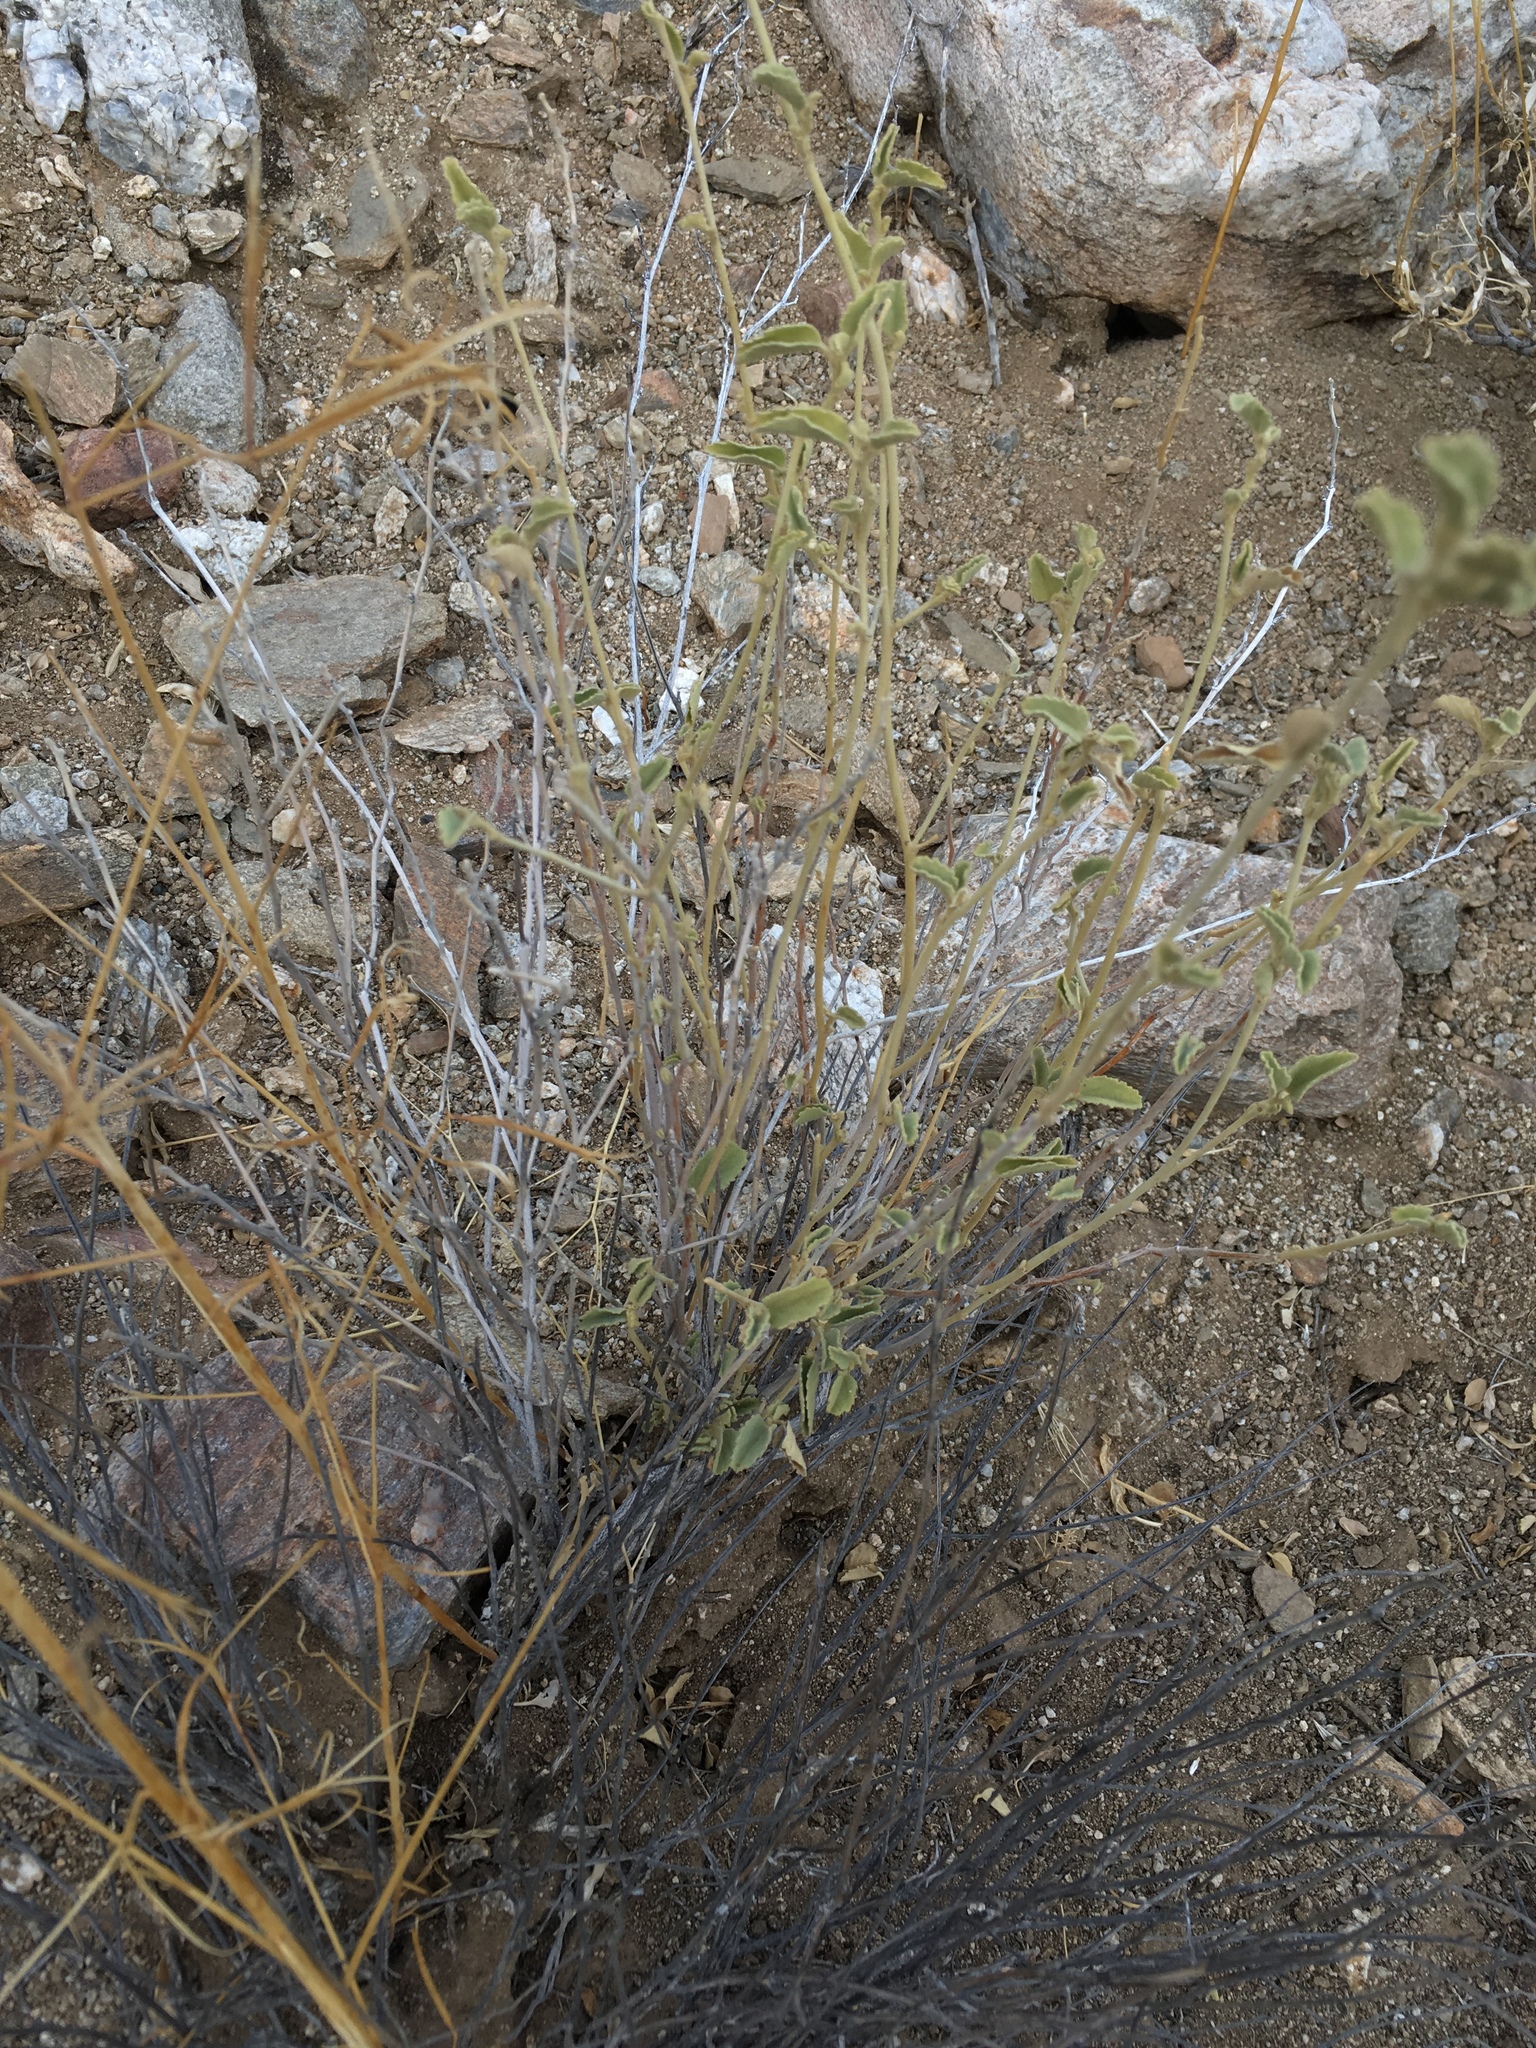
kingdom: Plantae
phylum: Tracheophyta
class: Magnoliopsida
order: Malvales
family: Malvaceae
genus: Hibiscus
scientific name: Hibiscus denudatus
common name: Paleface
